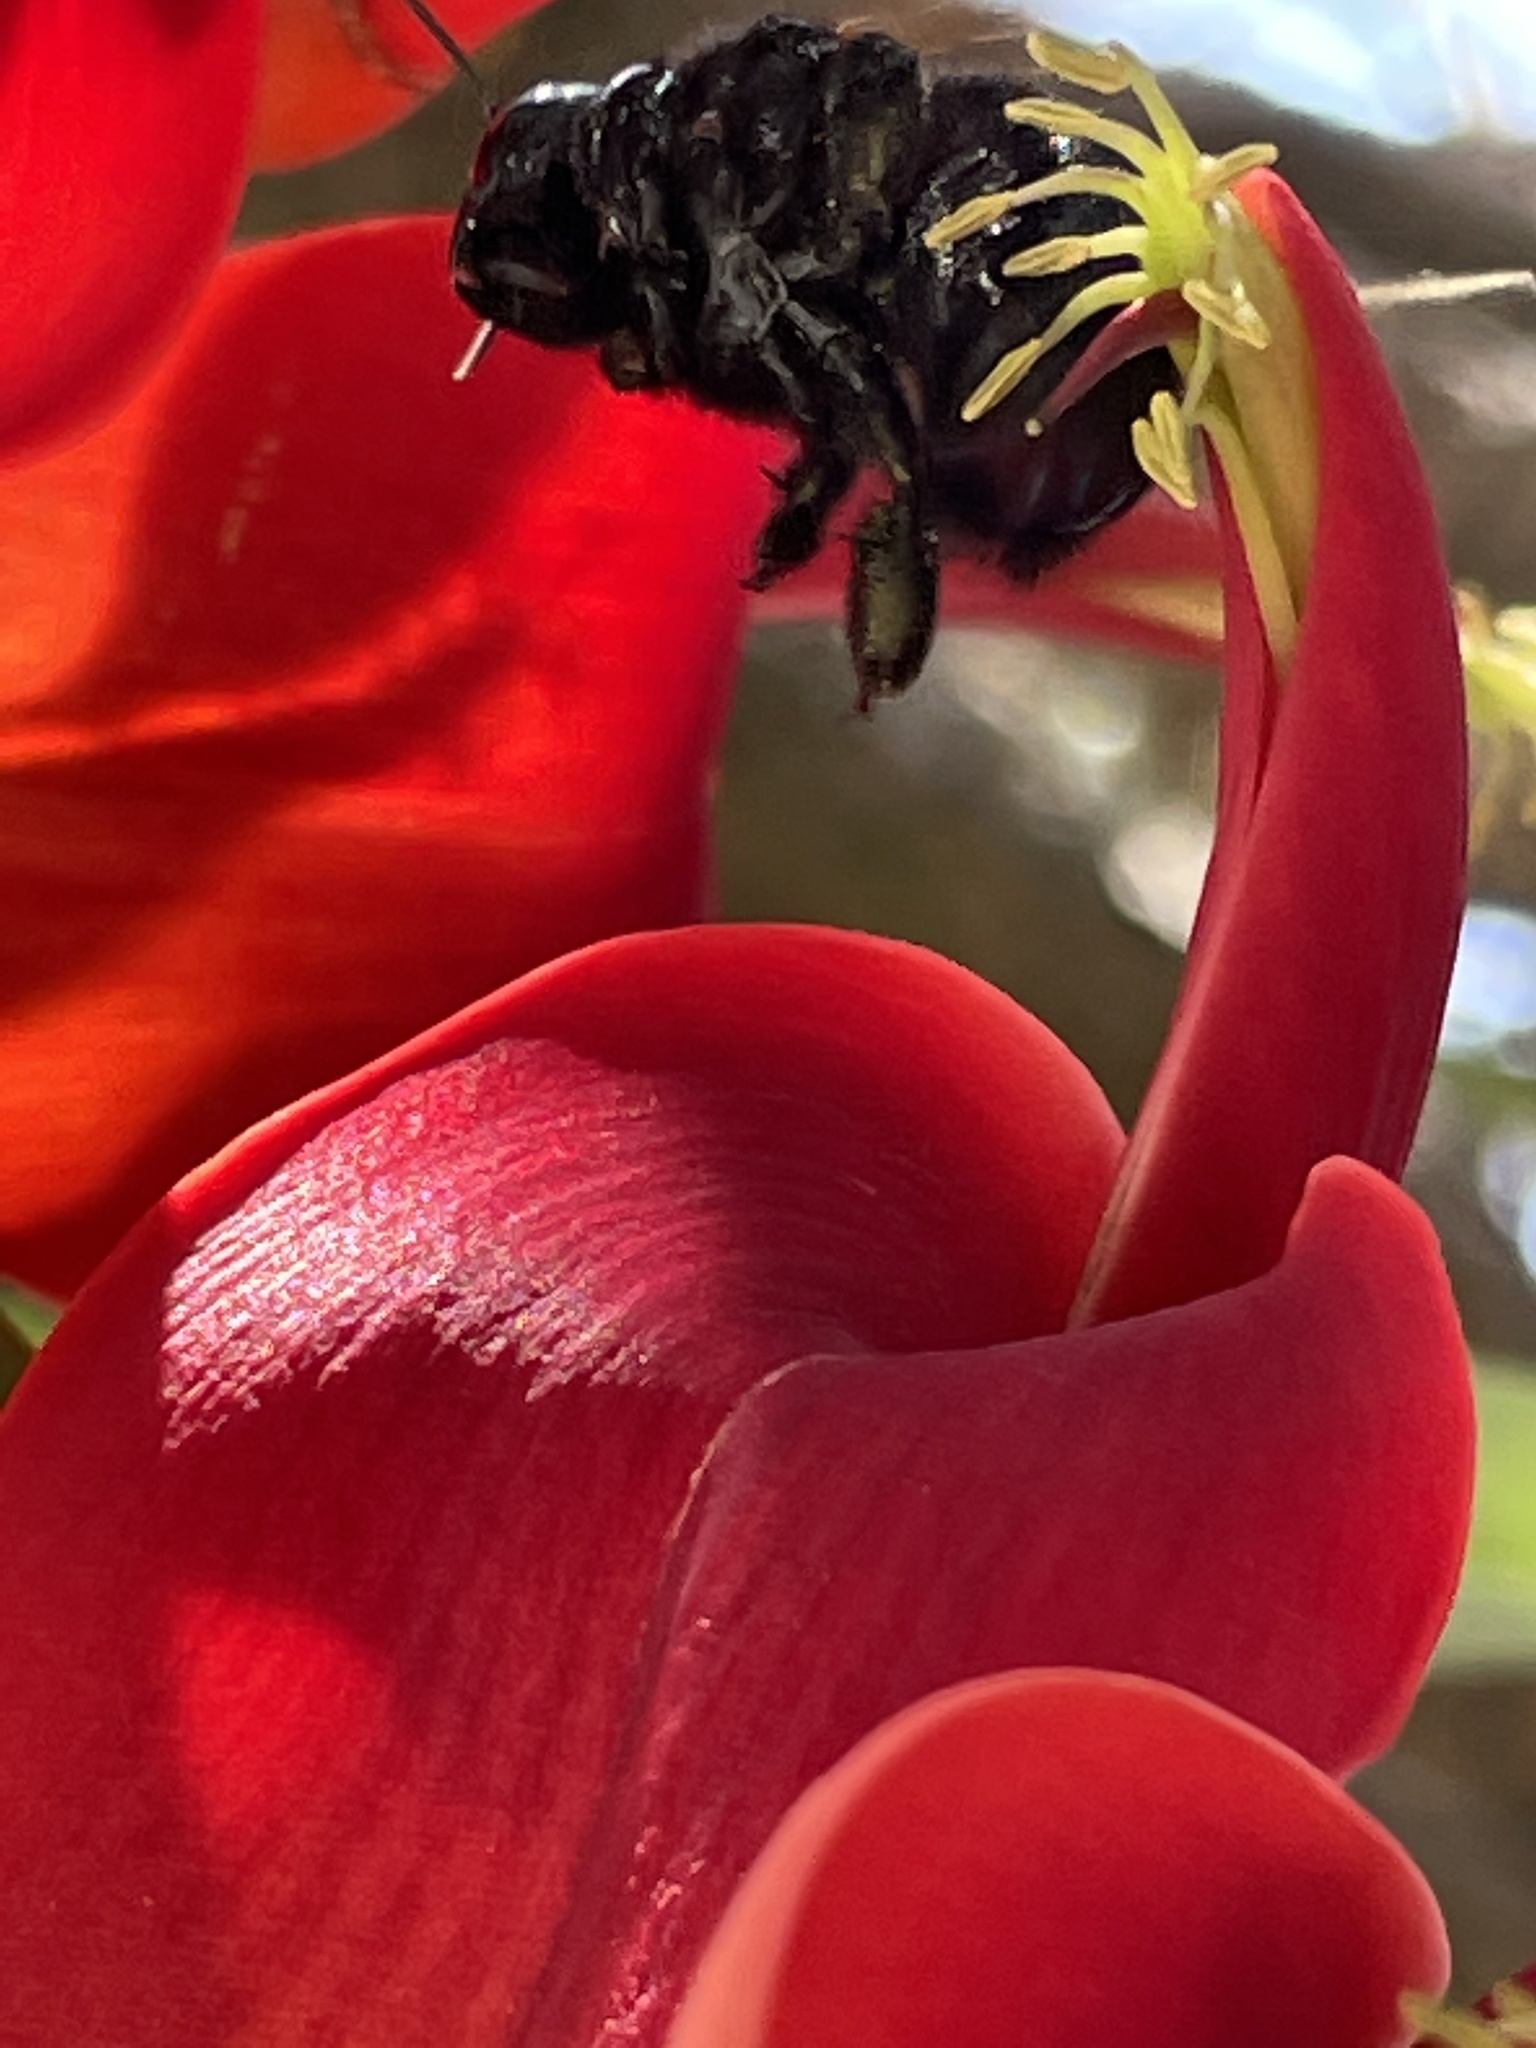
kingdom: Animalia
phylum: Arthropoda
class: Insecta
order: Hymenoptera
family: Apidae
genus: Xylocopa
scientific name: Xylocopa sonorina
